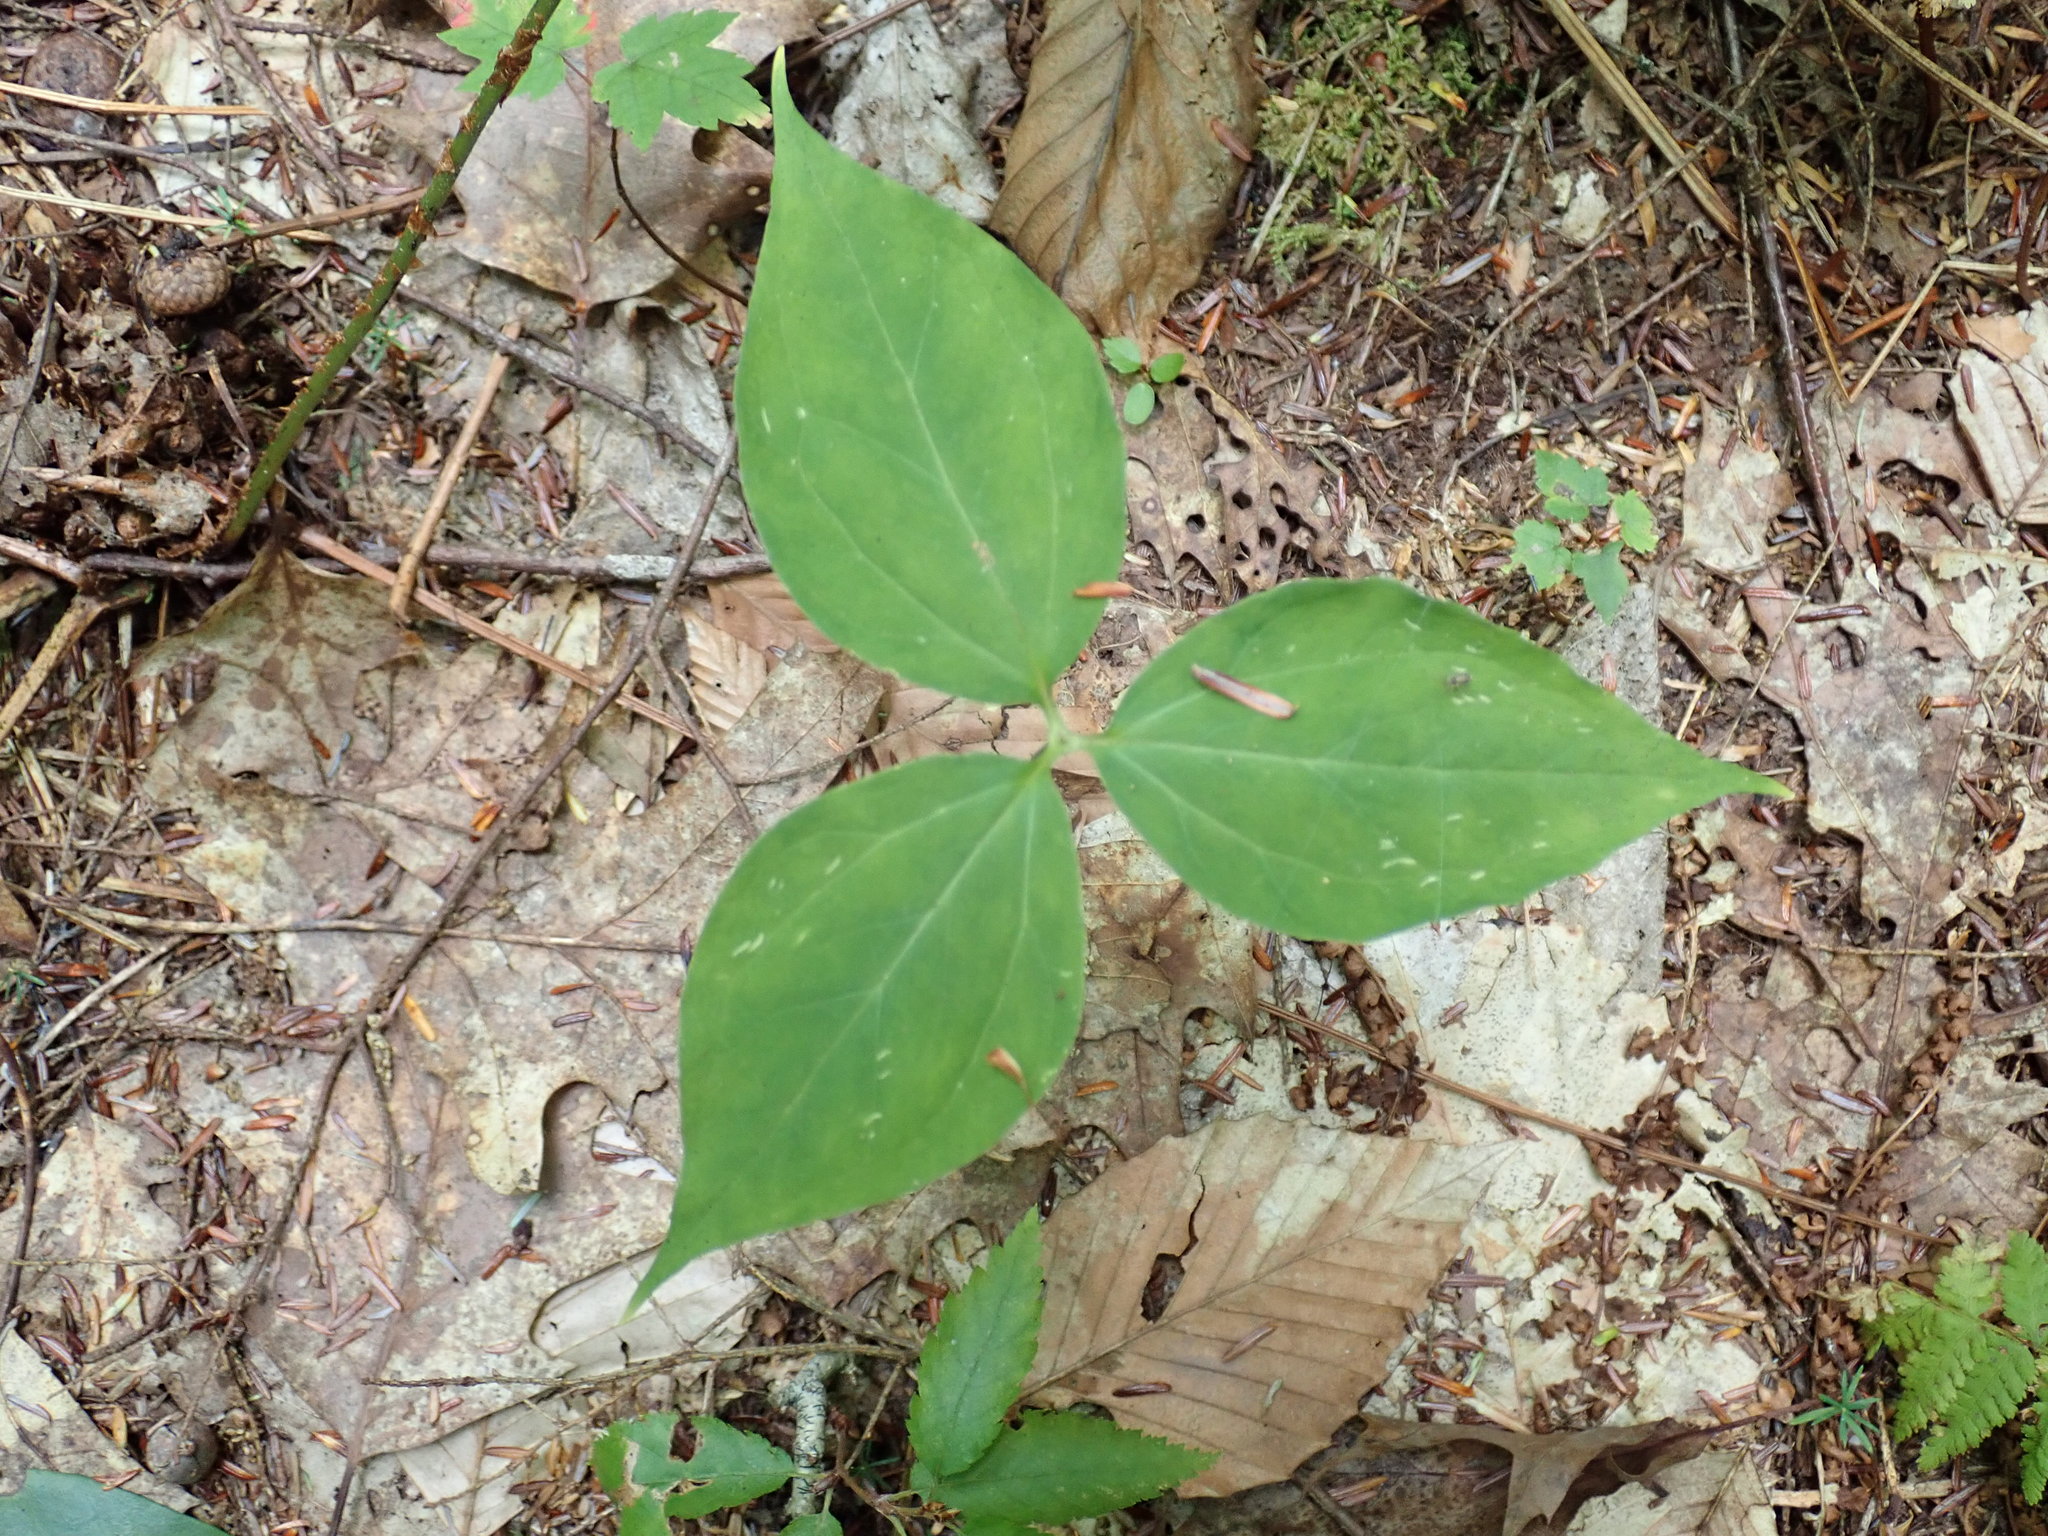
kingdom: Plantae
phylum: Tracheophyta
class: Liliopsida
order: Liliales
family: Melanthiaceae
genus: Trillium
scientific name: Trillium undulatum
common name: Paint trillium
